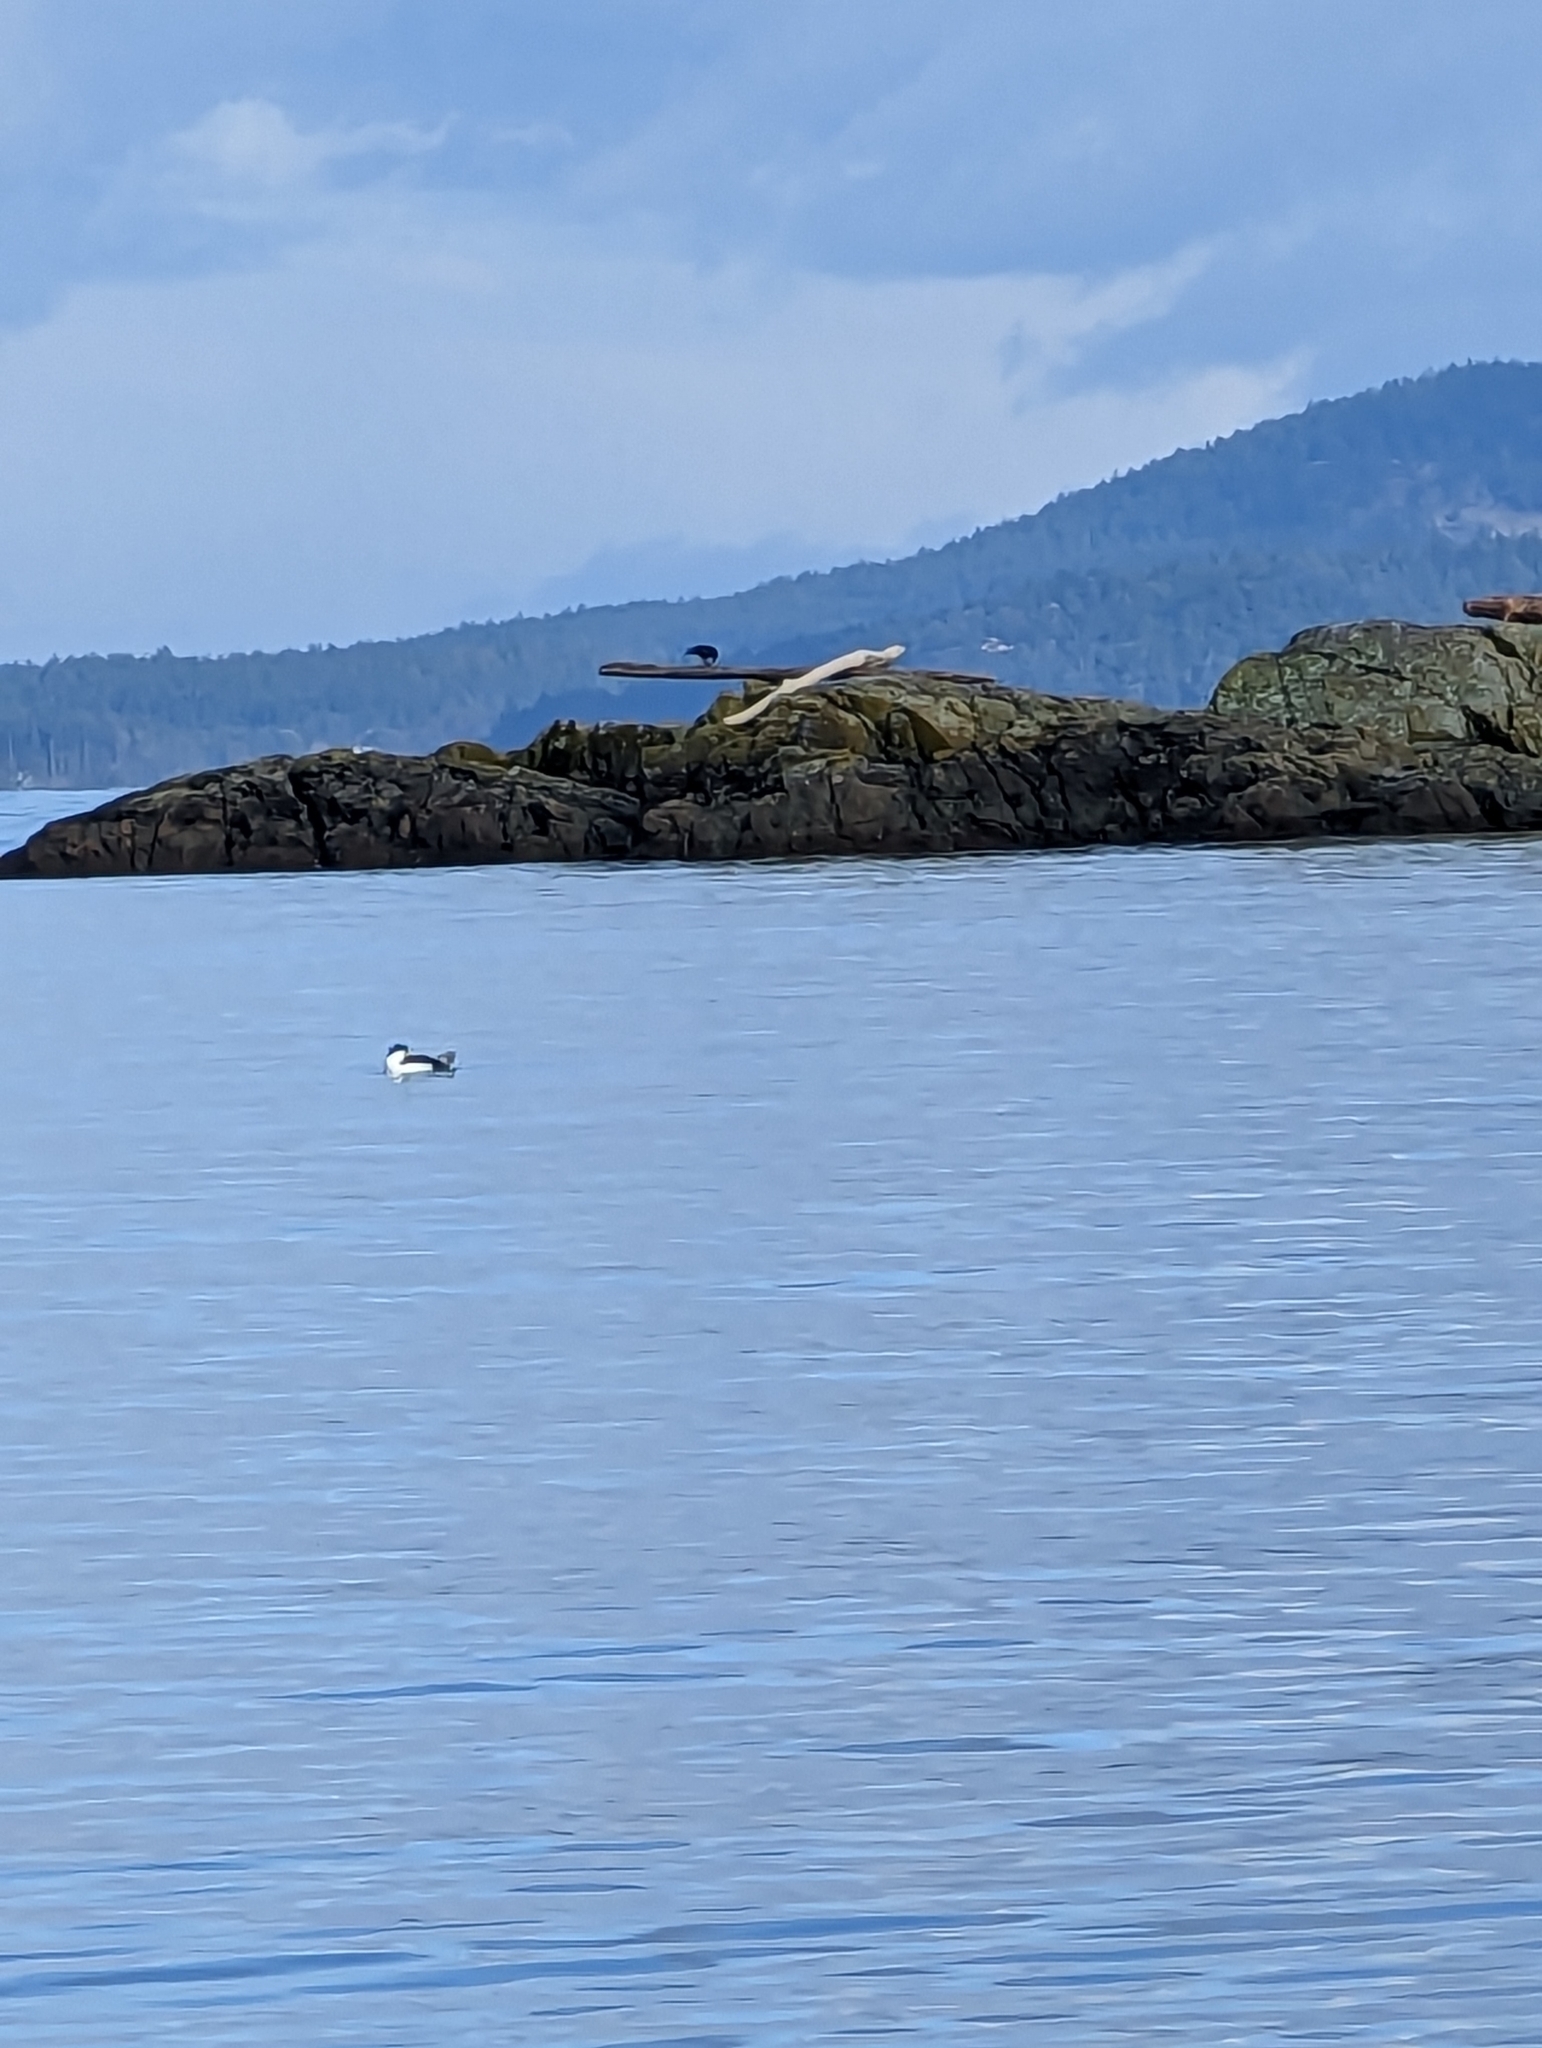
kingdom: Animalia
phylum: Chordata
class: Aves
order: Anseriformes
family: Anatidae
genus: Bucephala
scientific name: Bucephala albeola
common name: Bufflehead
